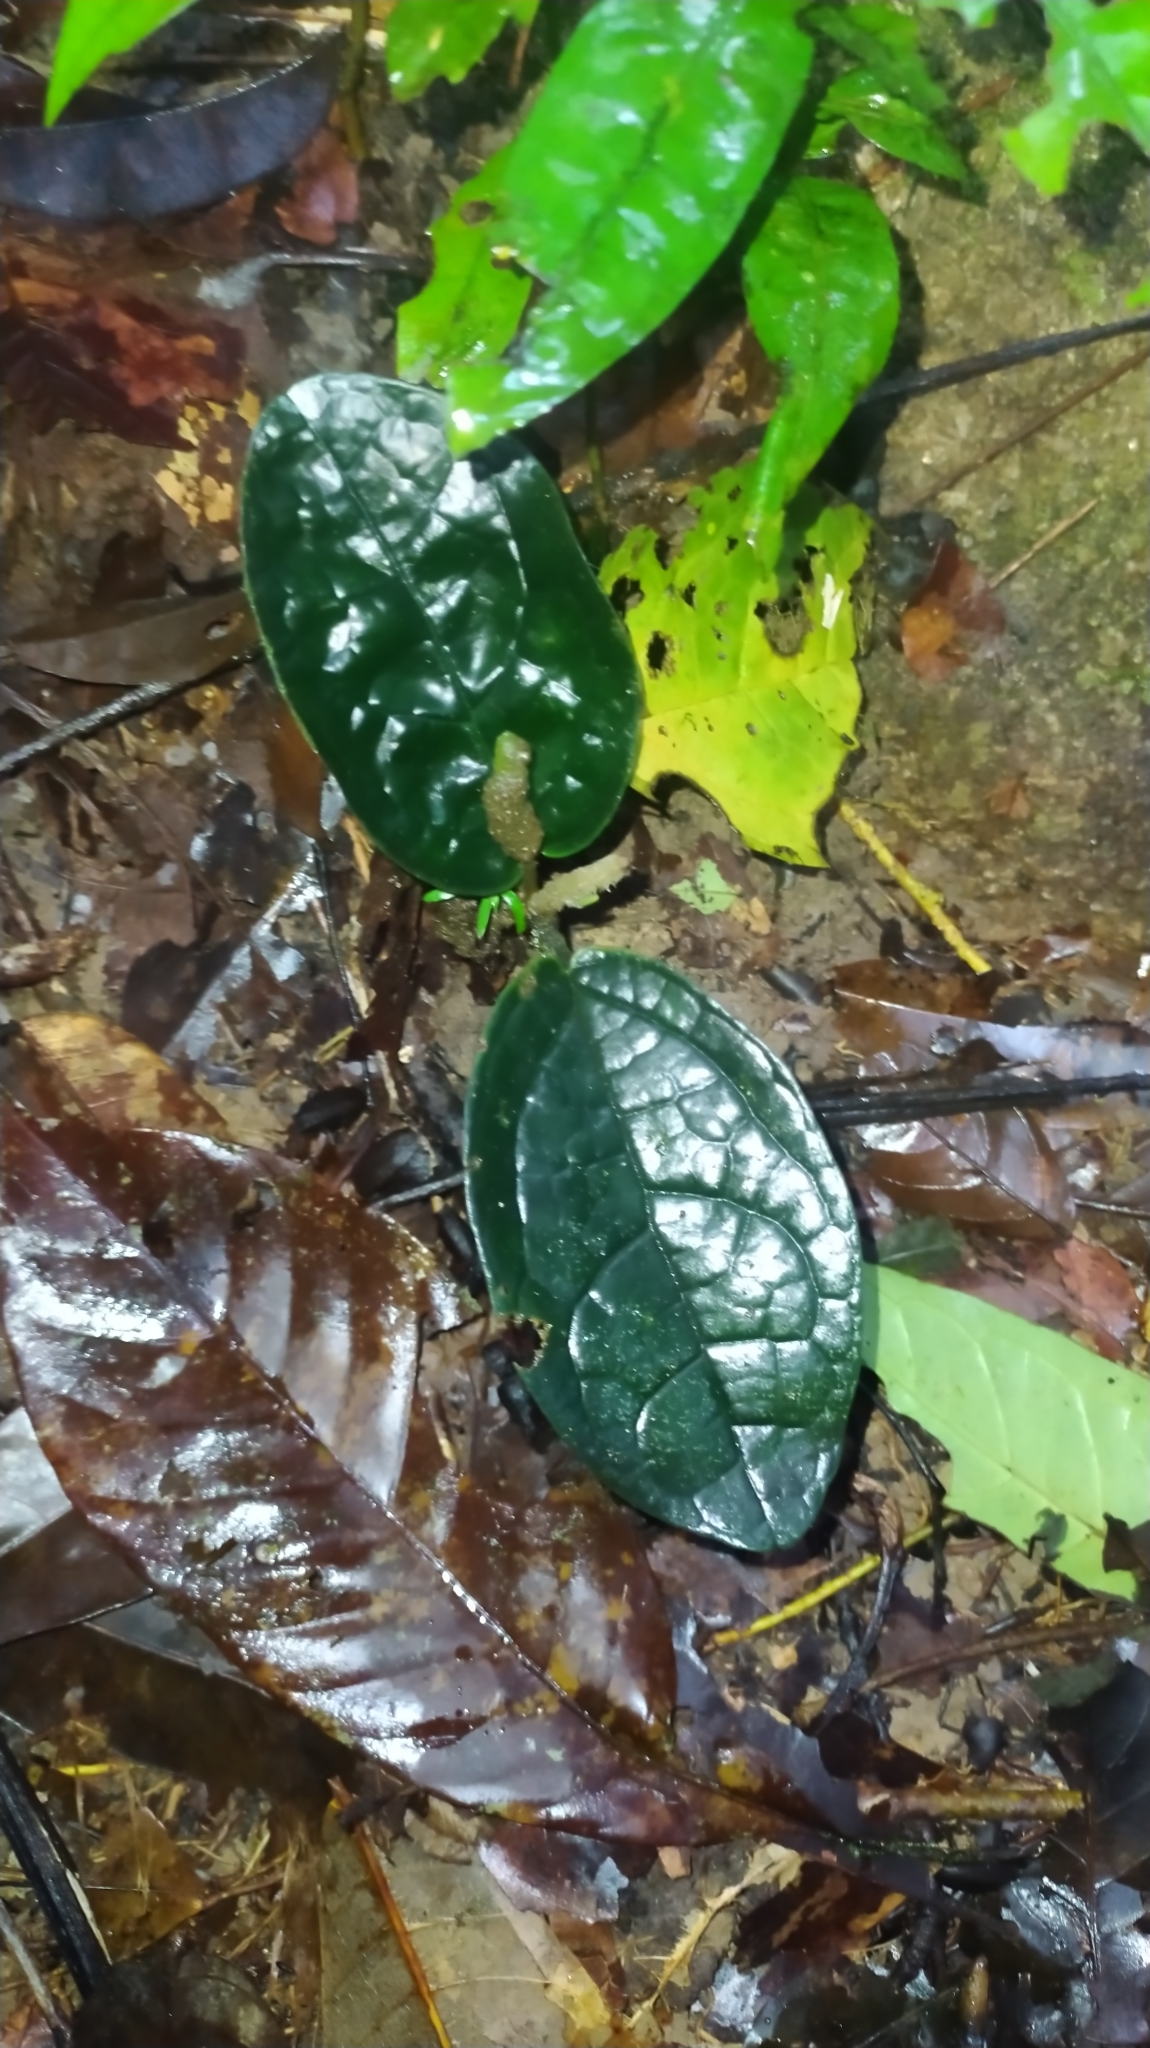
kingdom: Plantae
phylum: Tracheophyta
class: Magnoliopsida
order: Piperales
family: Piperaceae
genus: Piper
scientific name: Piper humistratum
